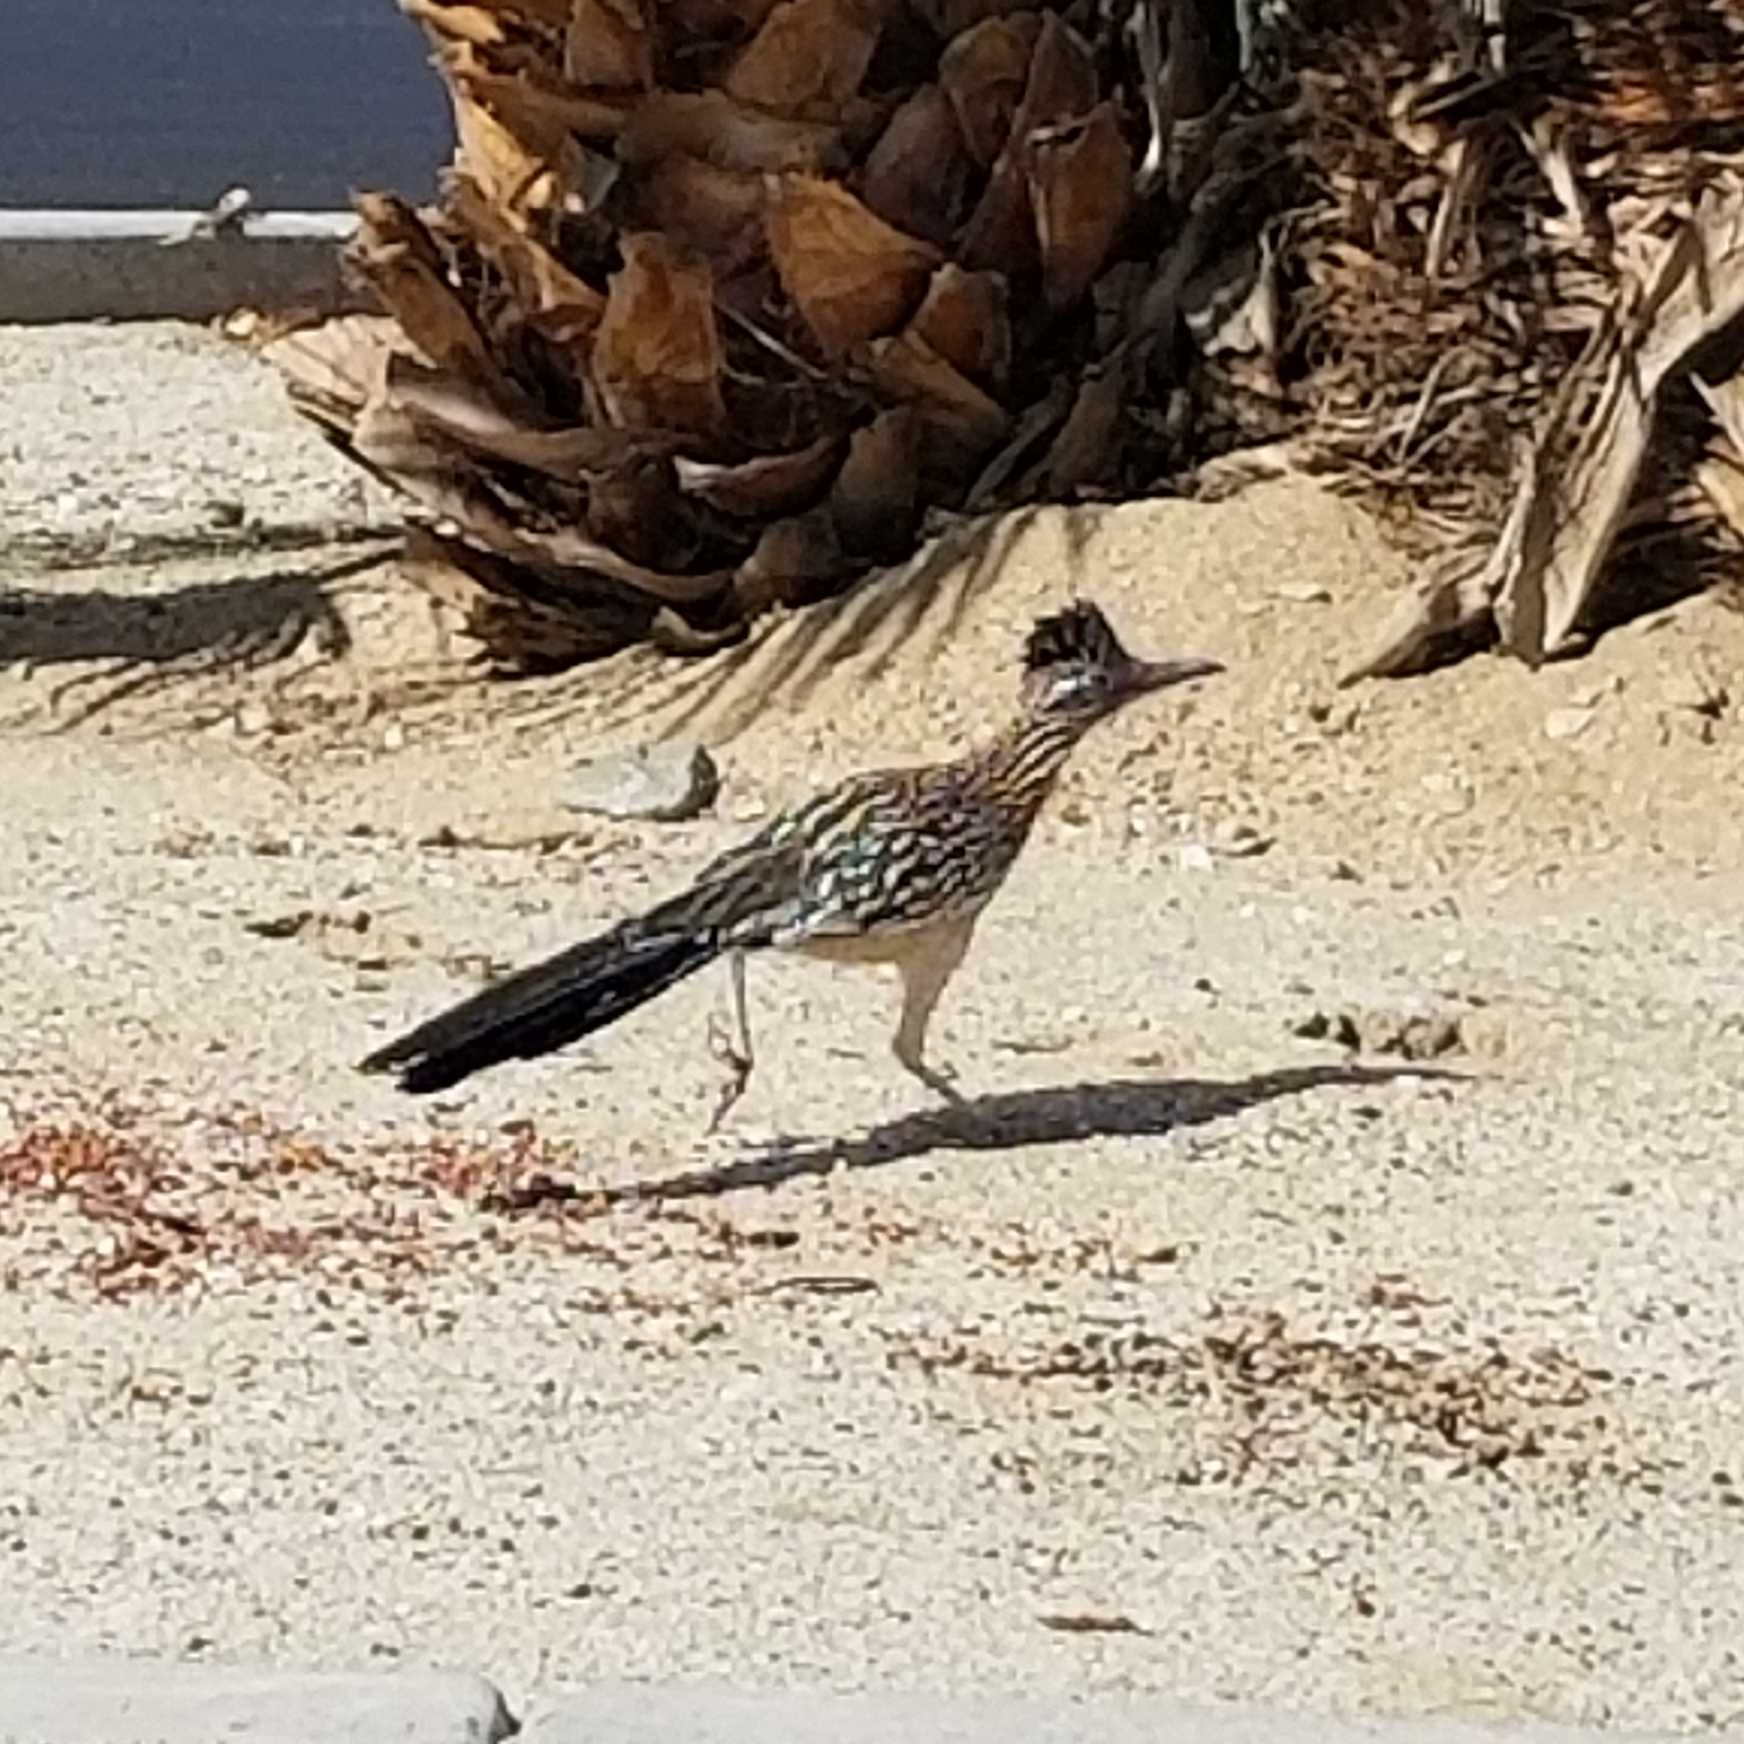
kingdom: Animalia
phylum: Chordata
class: Aves
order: Cuculiformes
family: Cuculidae
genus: Geococcyx
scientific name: Geococcyx californianus
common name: Greater roadrunner
